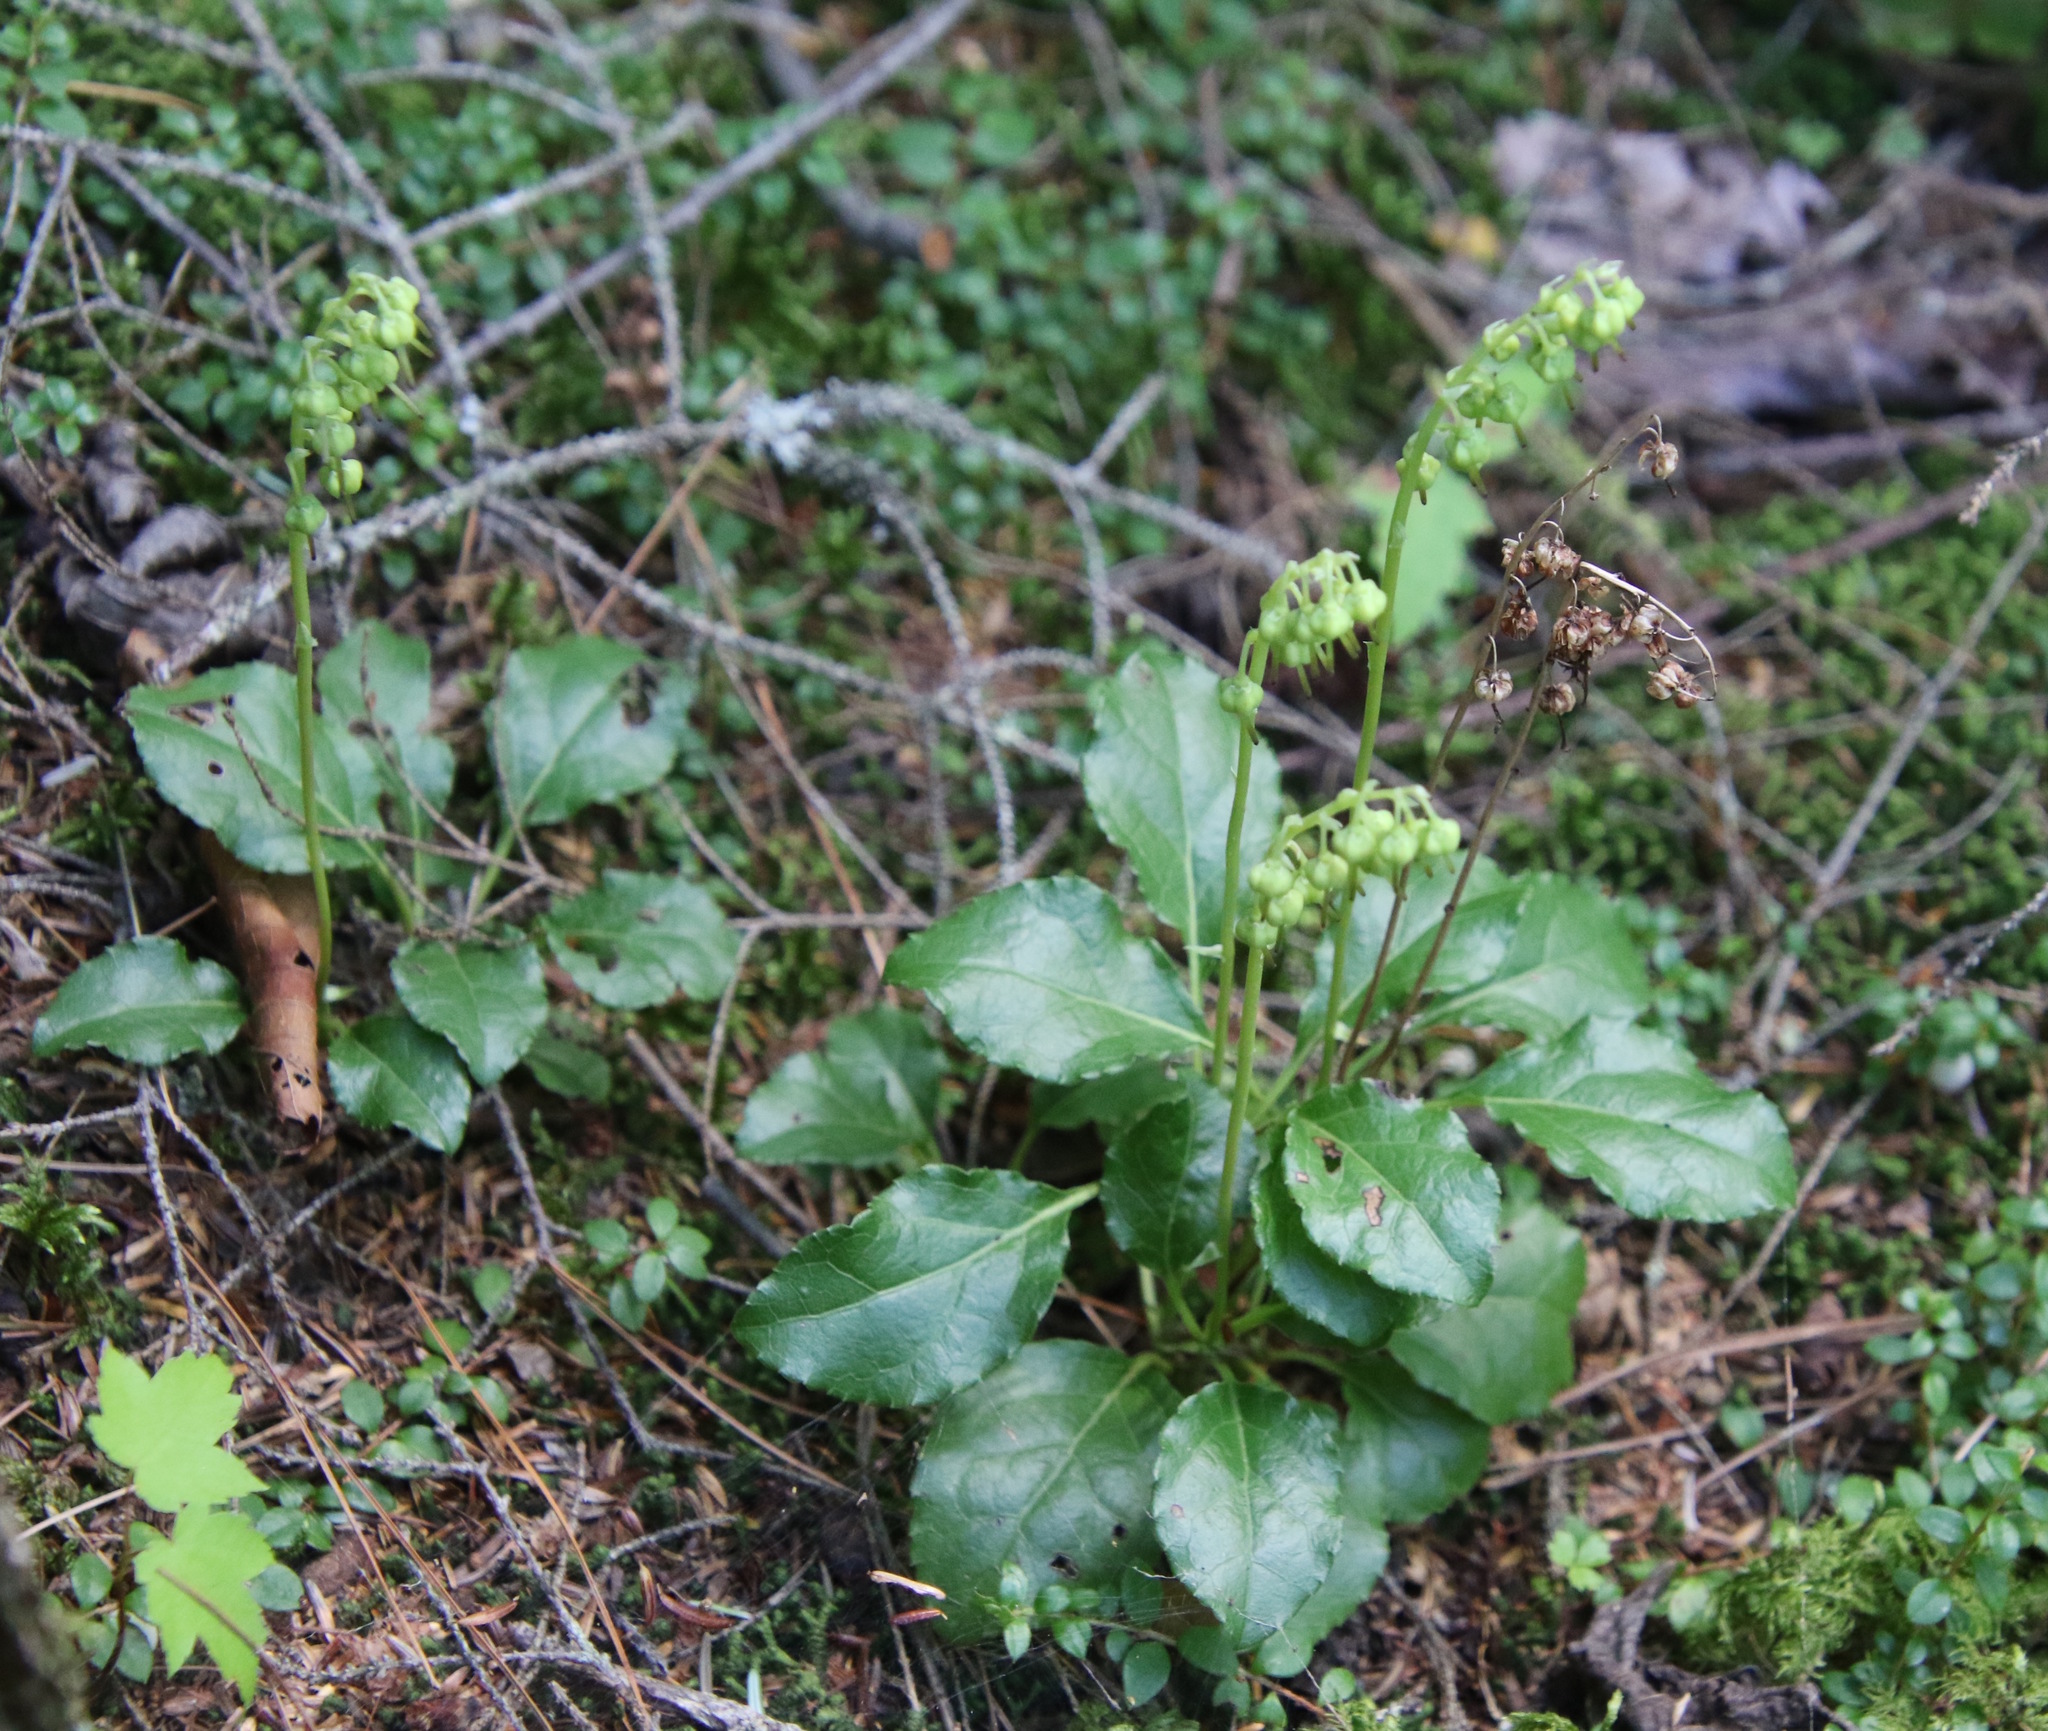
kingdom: Plantae
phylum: Tracheophyta
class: Magnoliopsida
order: Ericales
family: Ericaceae
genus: Orthilia
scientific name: Orthilia secunda
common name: One-sided orthilia
